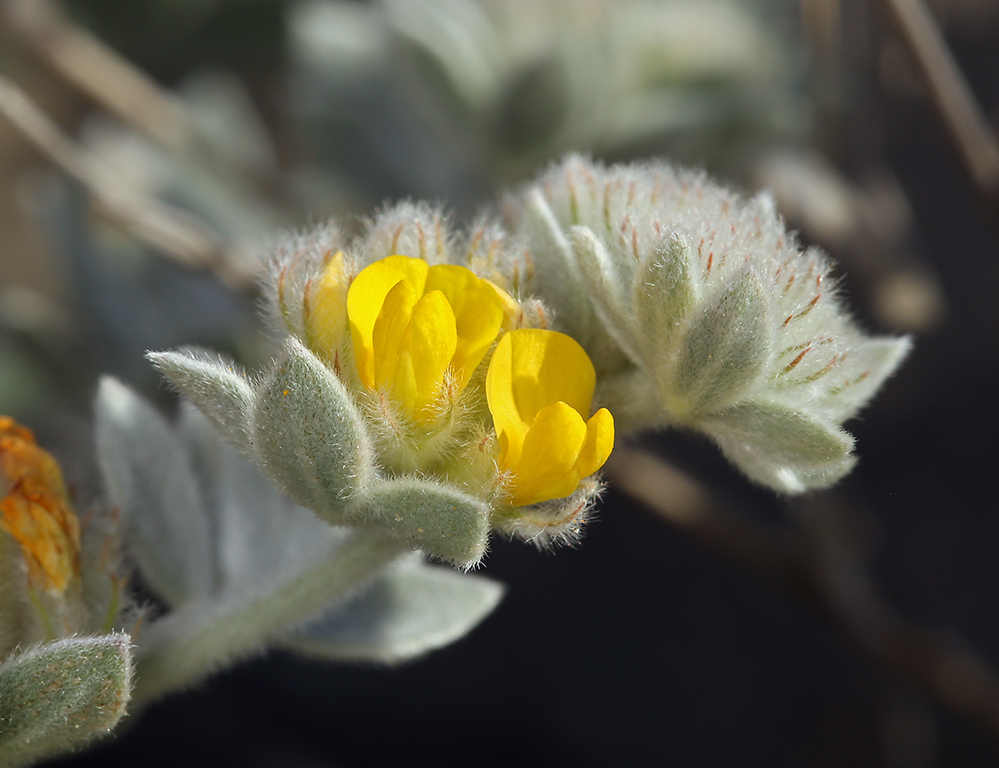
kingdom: Plantae
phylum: Tracheophyta
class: Magnoliopsida
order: Fabales
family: Fabaceae
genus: Acmispon
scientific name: Acmispon argophyllus
